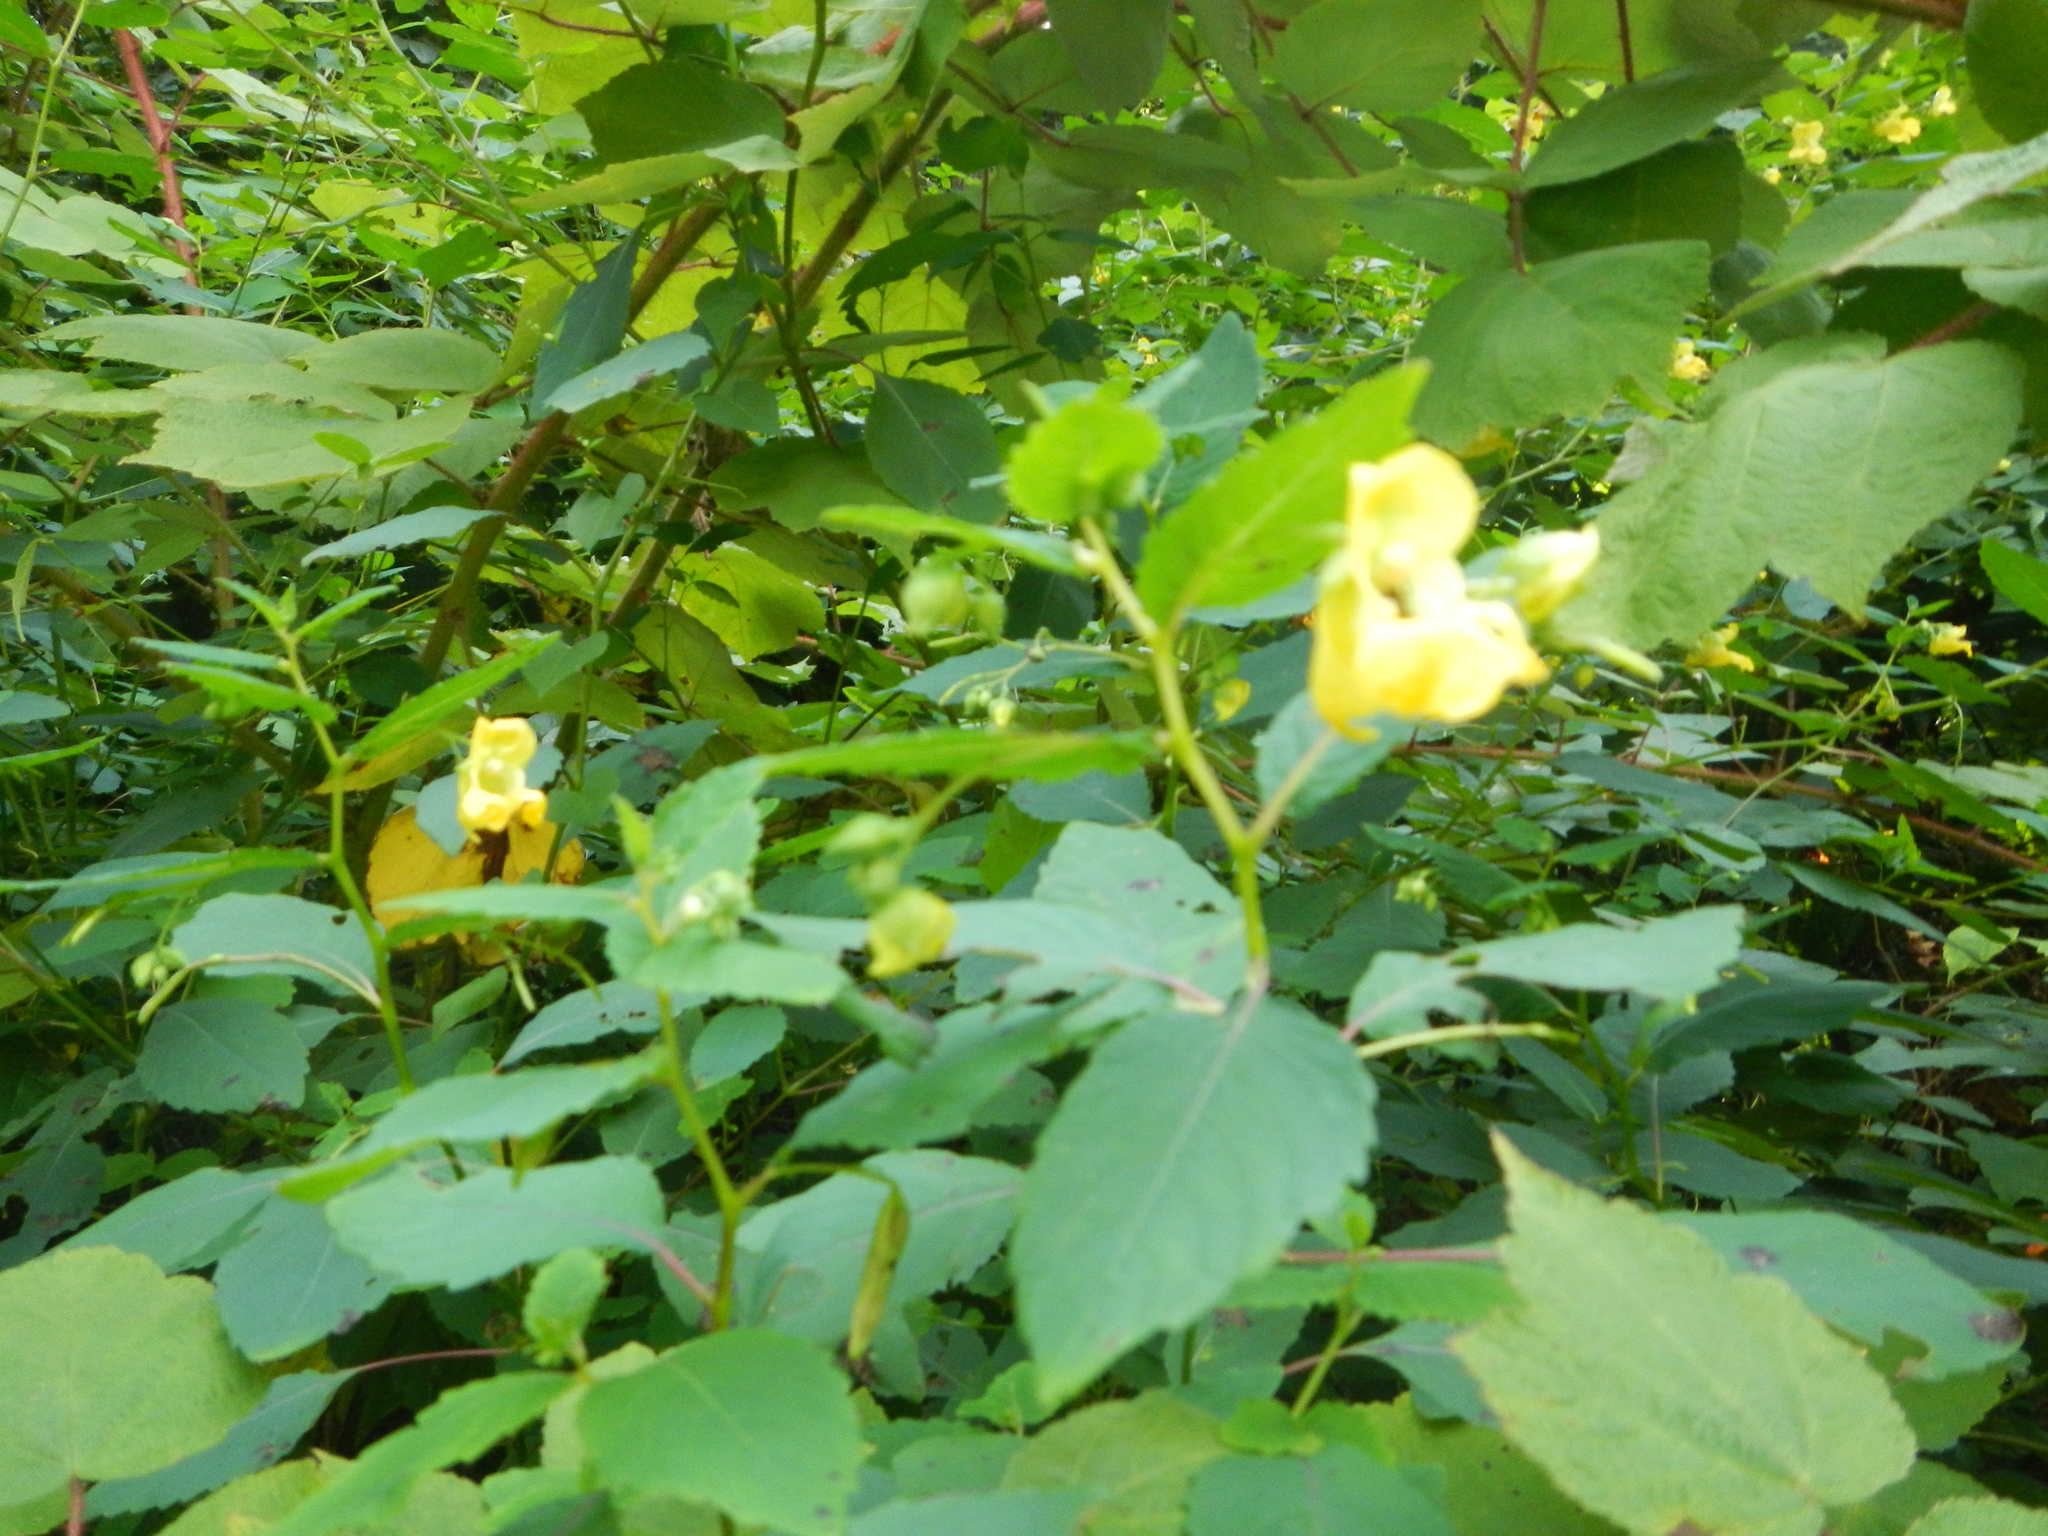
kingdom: Plantae
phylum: Tracheophyta
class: Magnoliopsida
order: Ericales
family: Balsaminaceae
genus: Impatiens
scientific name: Impatiens pallida
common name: Pale snapweed
